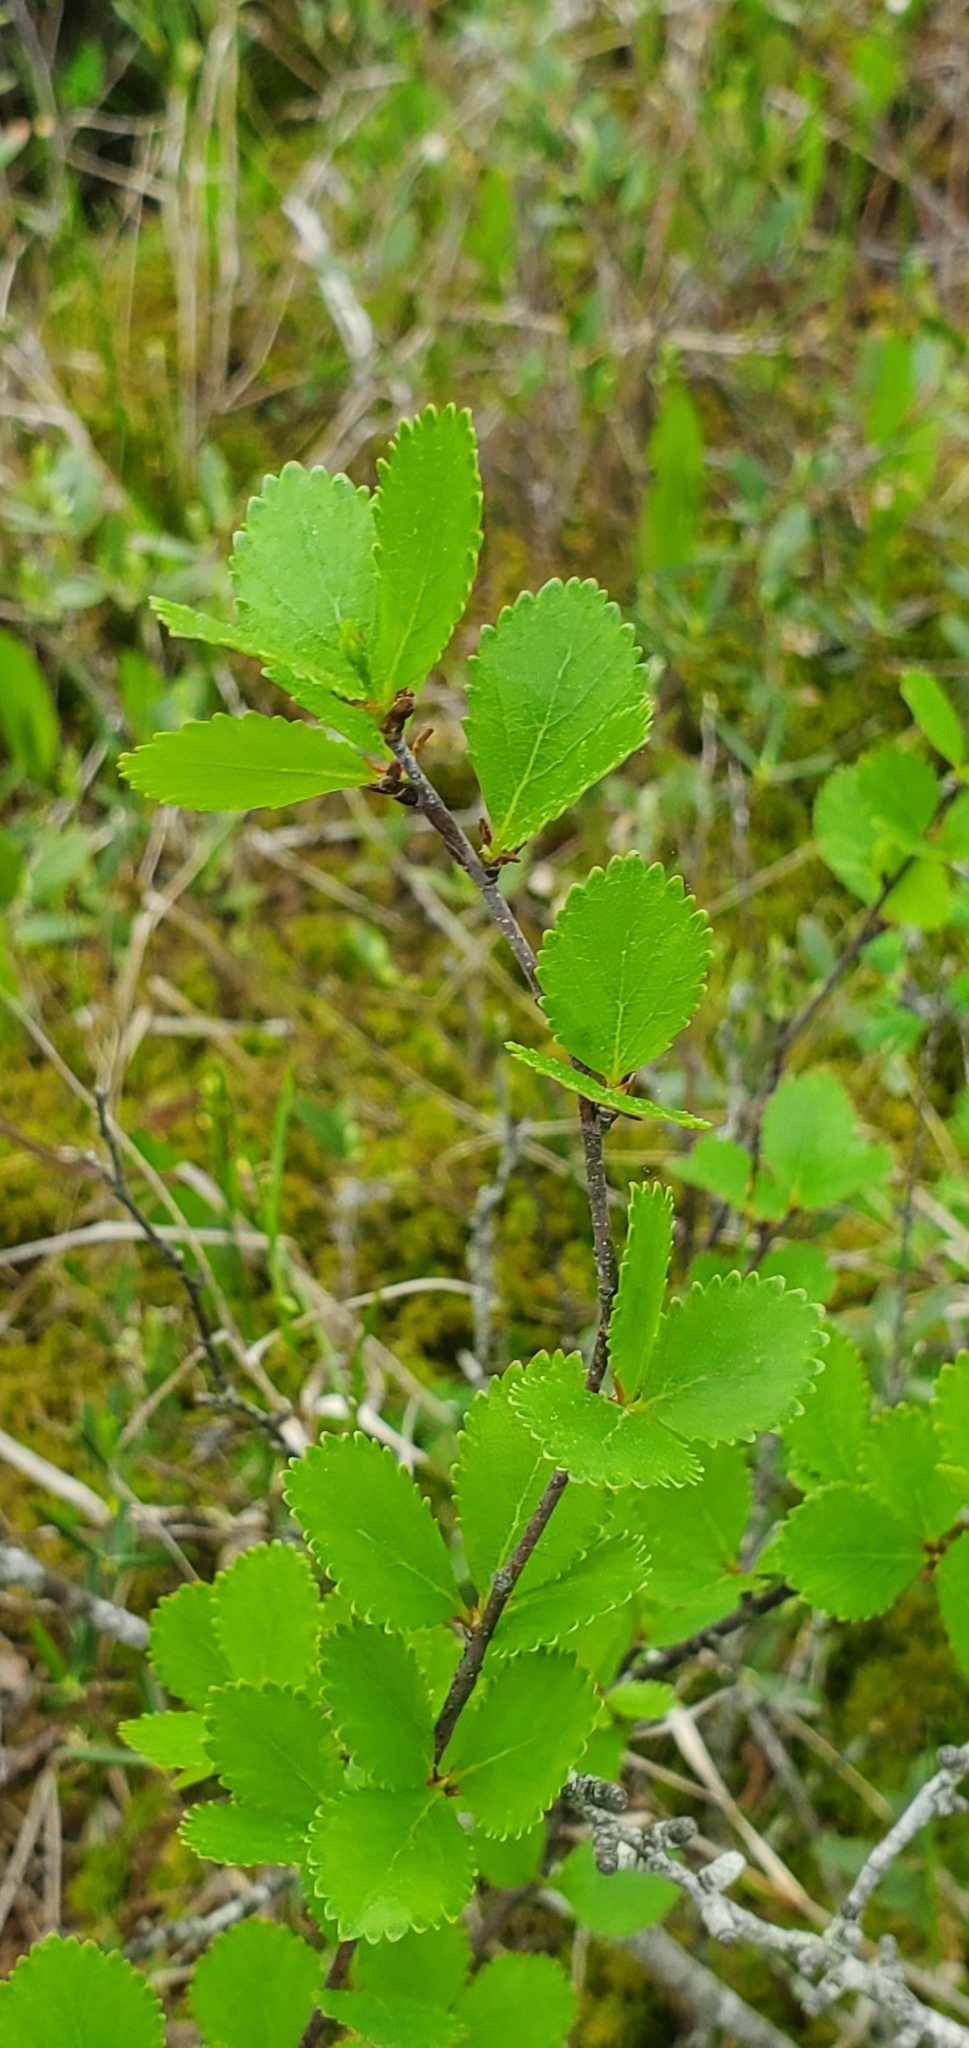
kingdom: Plantae
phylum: Tracheophyta
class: Magnoliopsida
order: Fagales
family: Betulaceae
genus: Betula
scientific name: Betula pumila
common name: Bog birch
